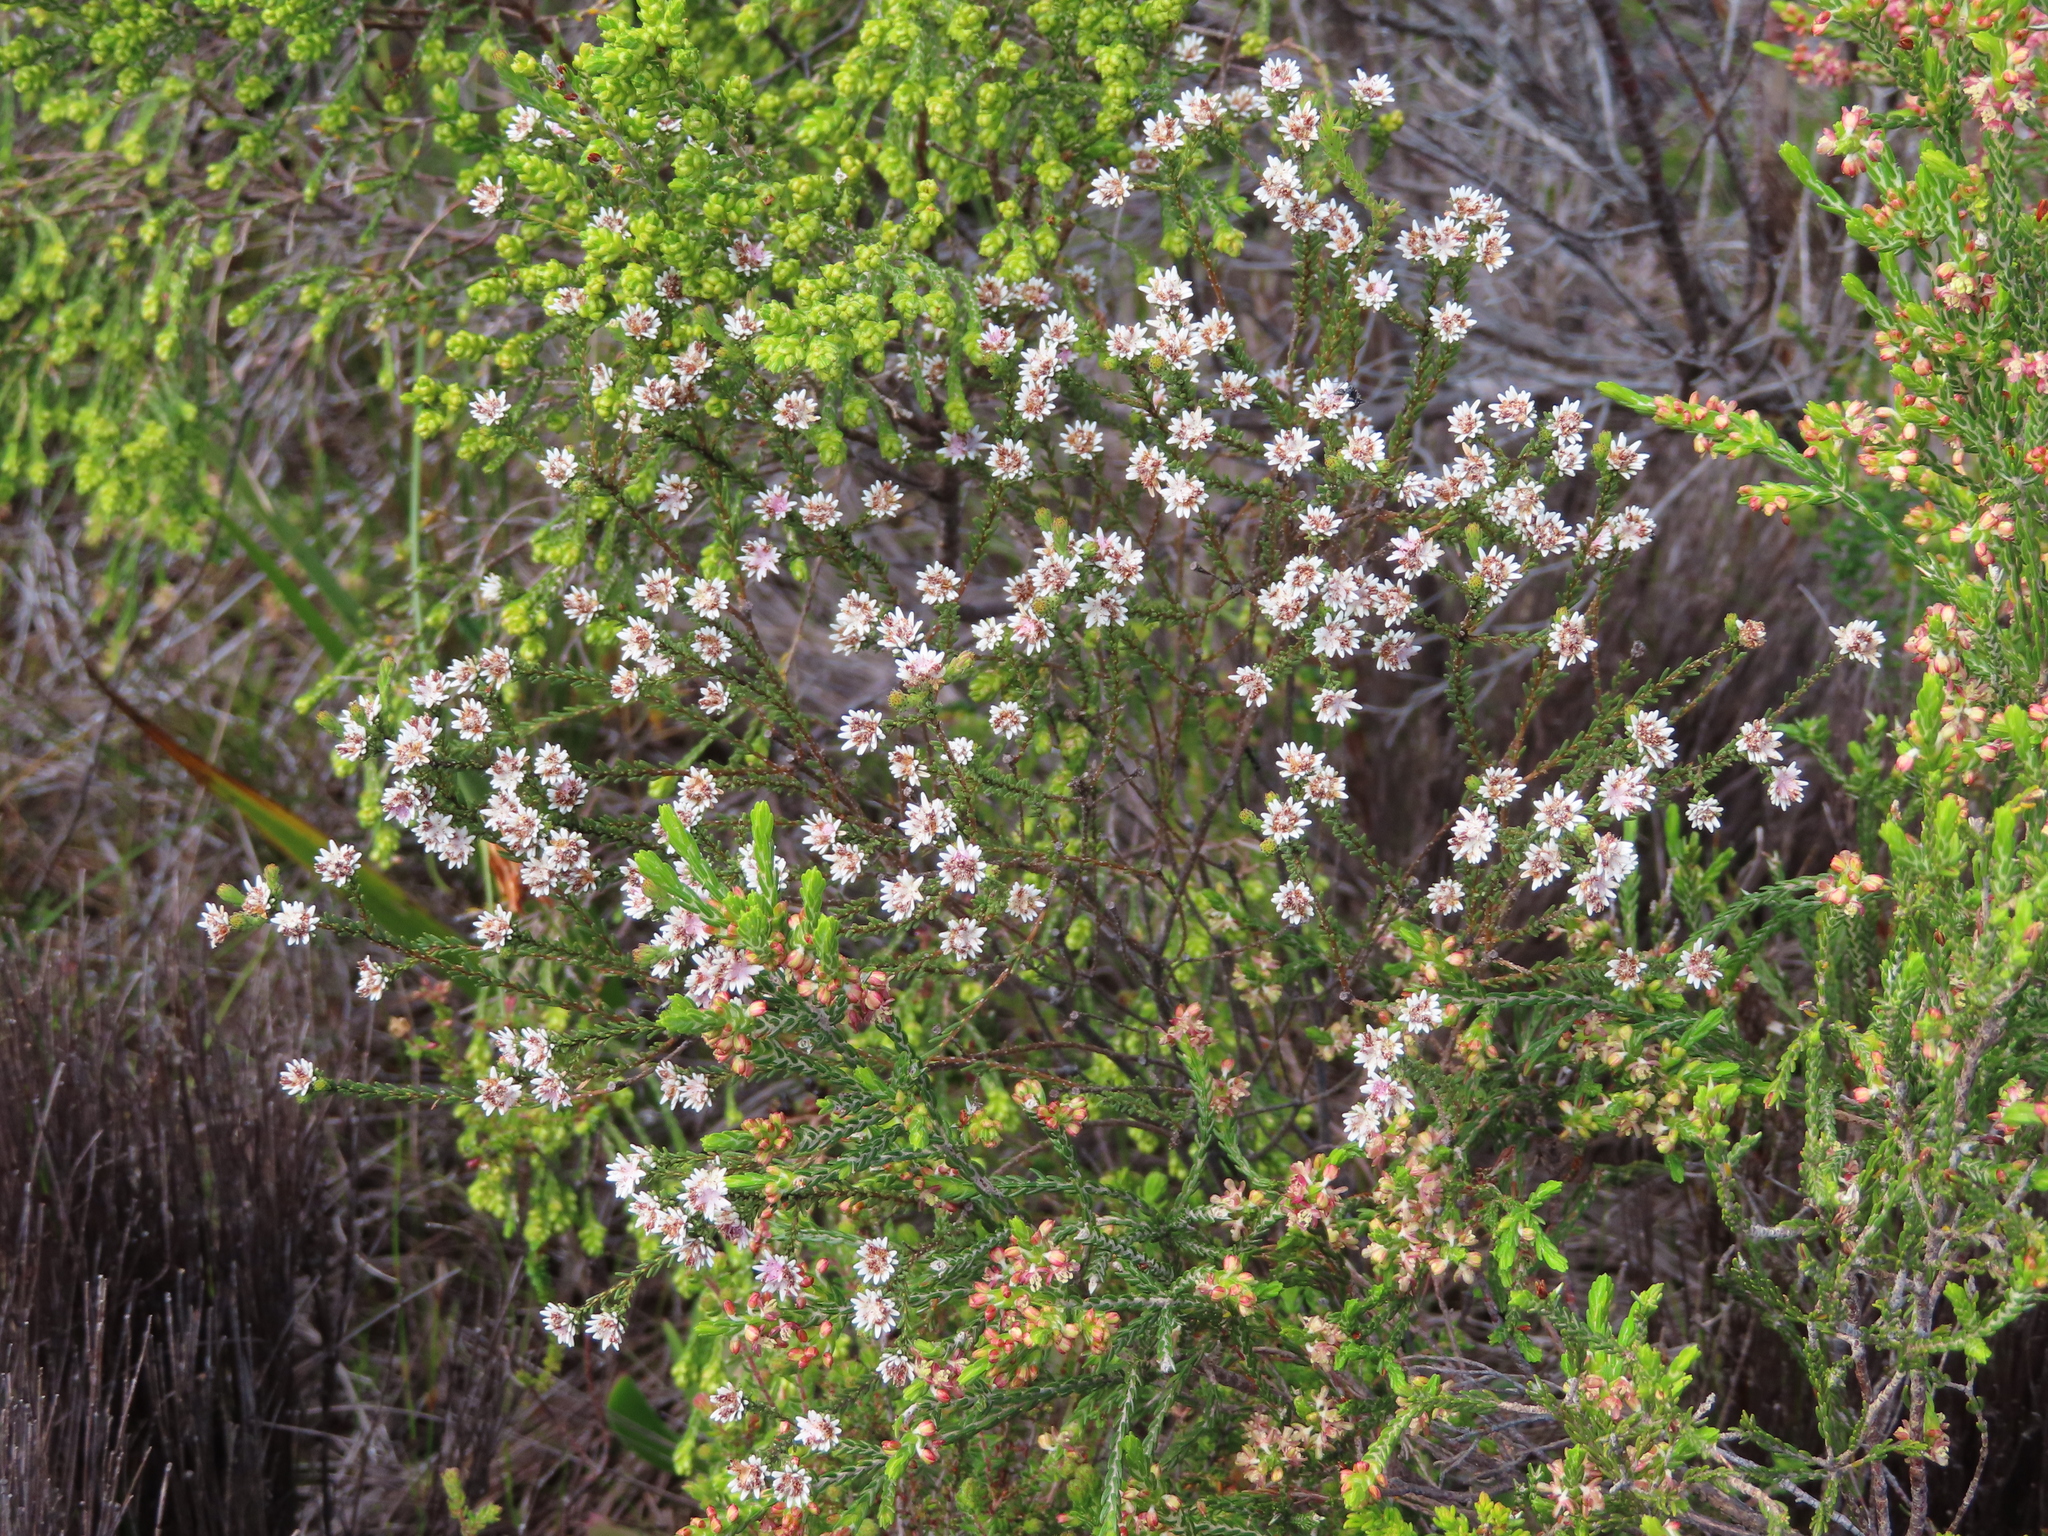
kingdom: Plantae
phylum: Tracheophyta
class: Magnoliopsida
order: Bruniales
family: Bruniaceae
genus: Staavia
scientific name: Staavia radiata
